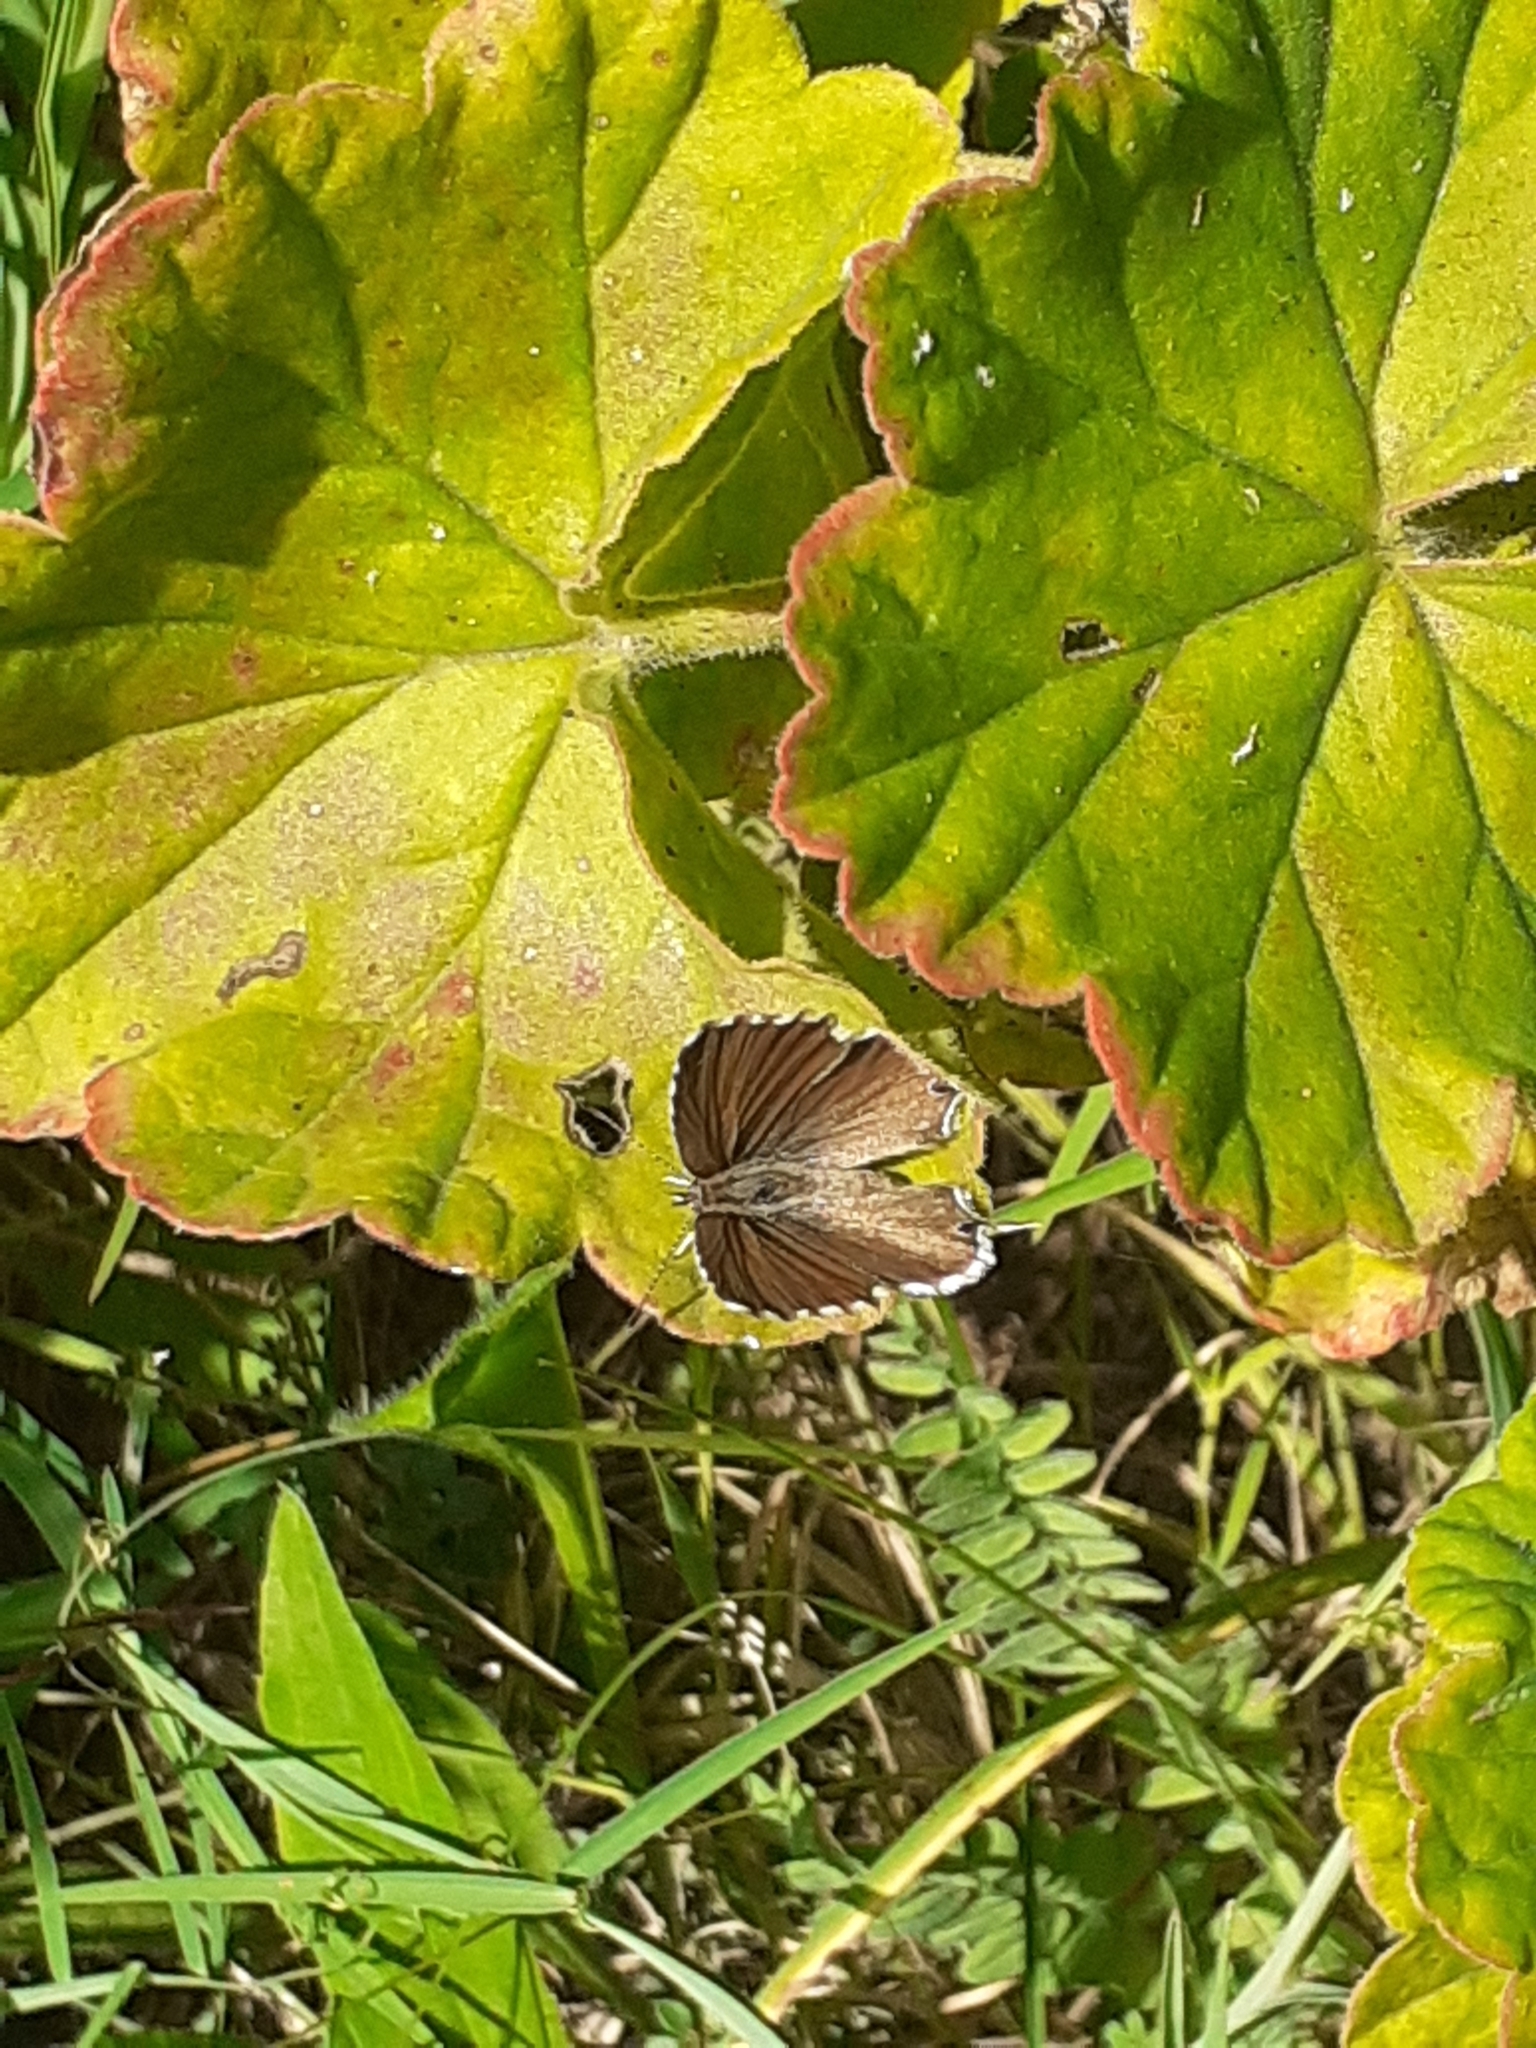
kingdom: Animalia
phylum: Arthropoda
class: Insecta
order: Lepidoptera
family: Lycaenidae
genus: Cacyreus
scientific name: Cacyreus marshalli
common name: Geranium bronze
